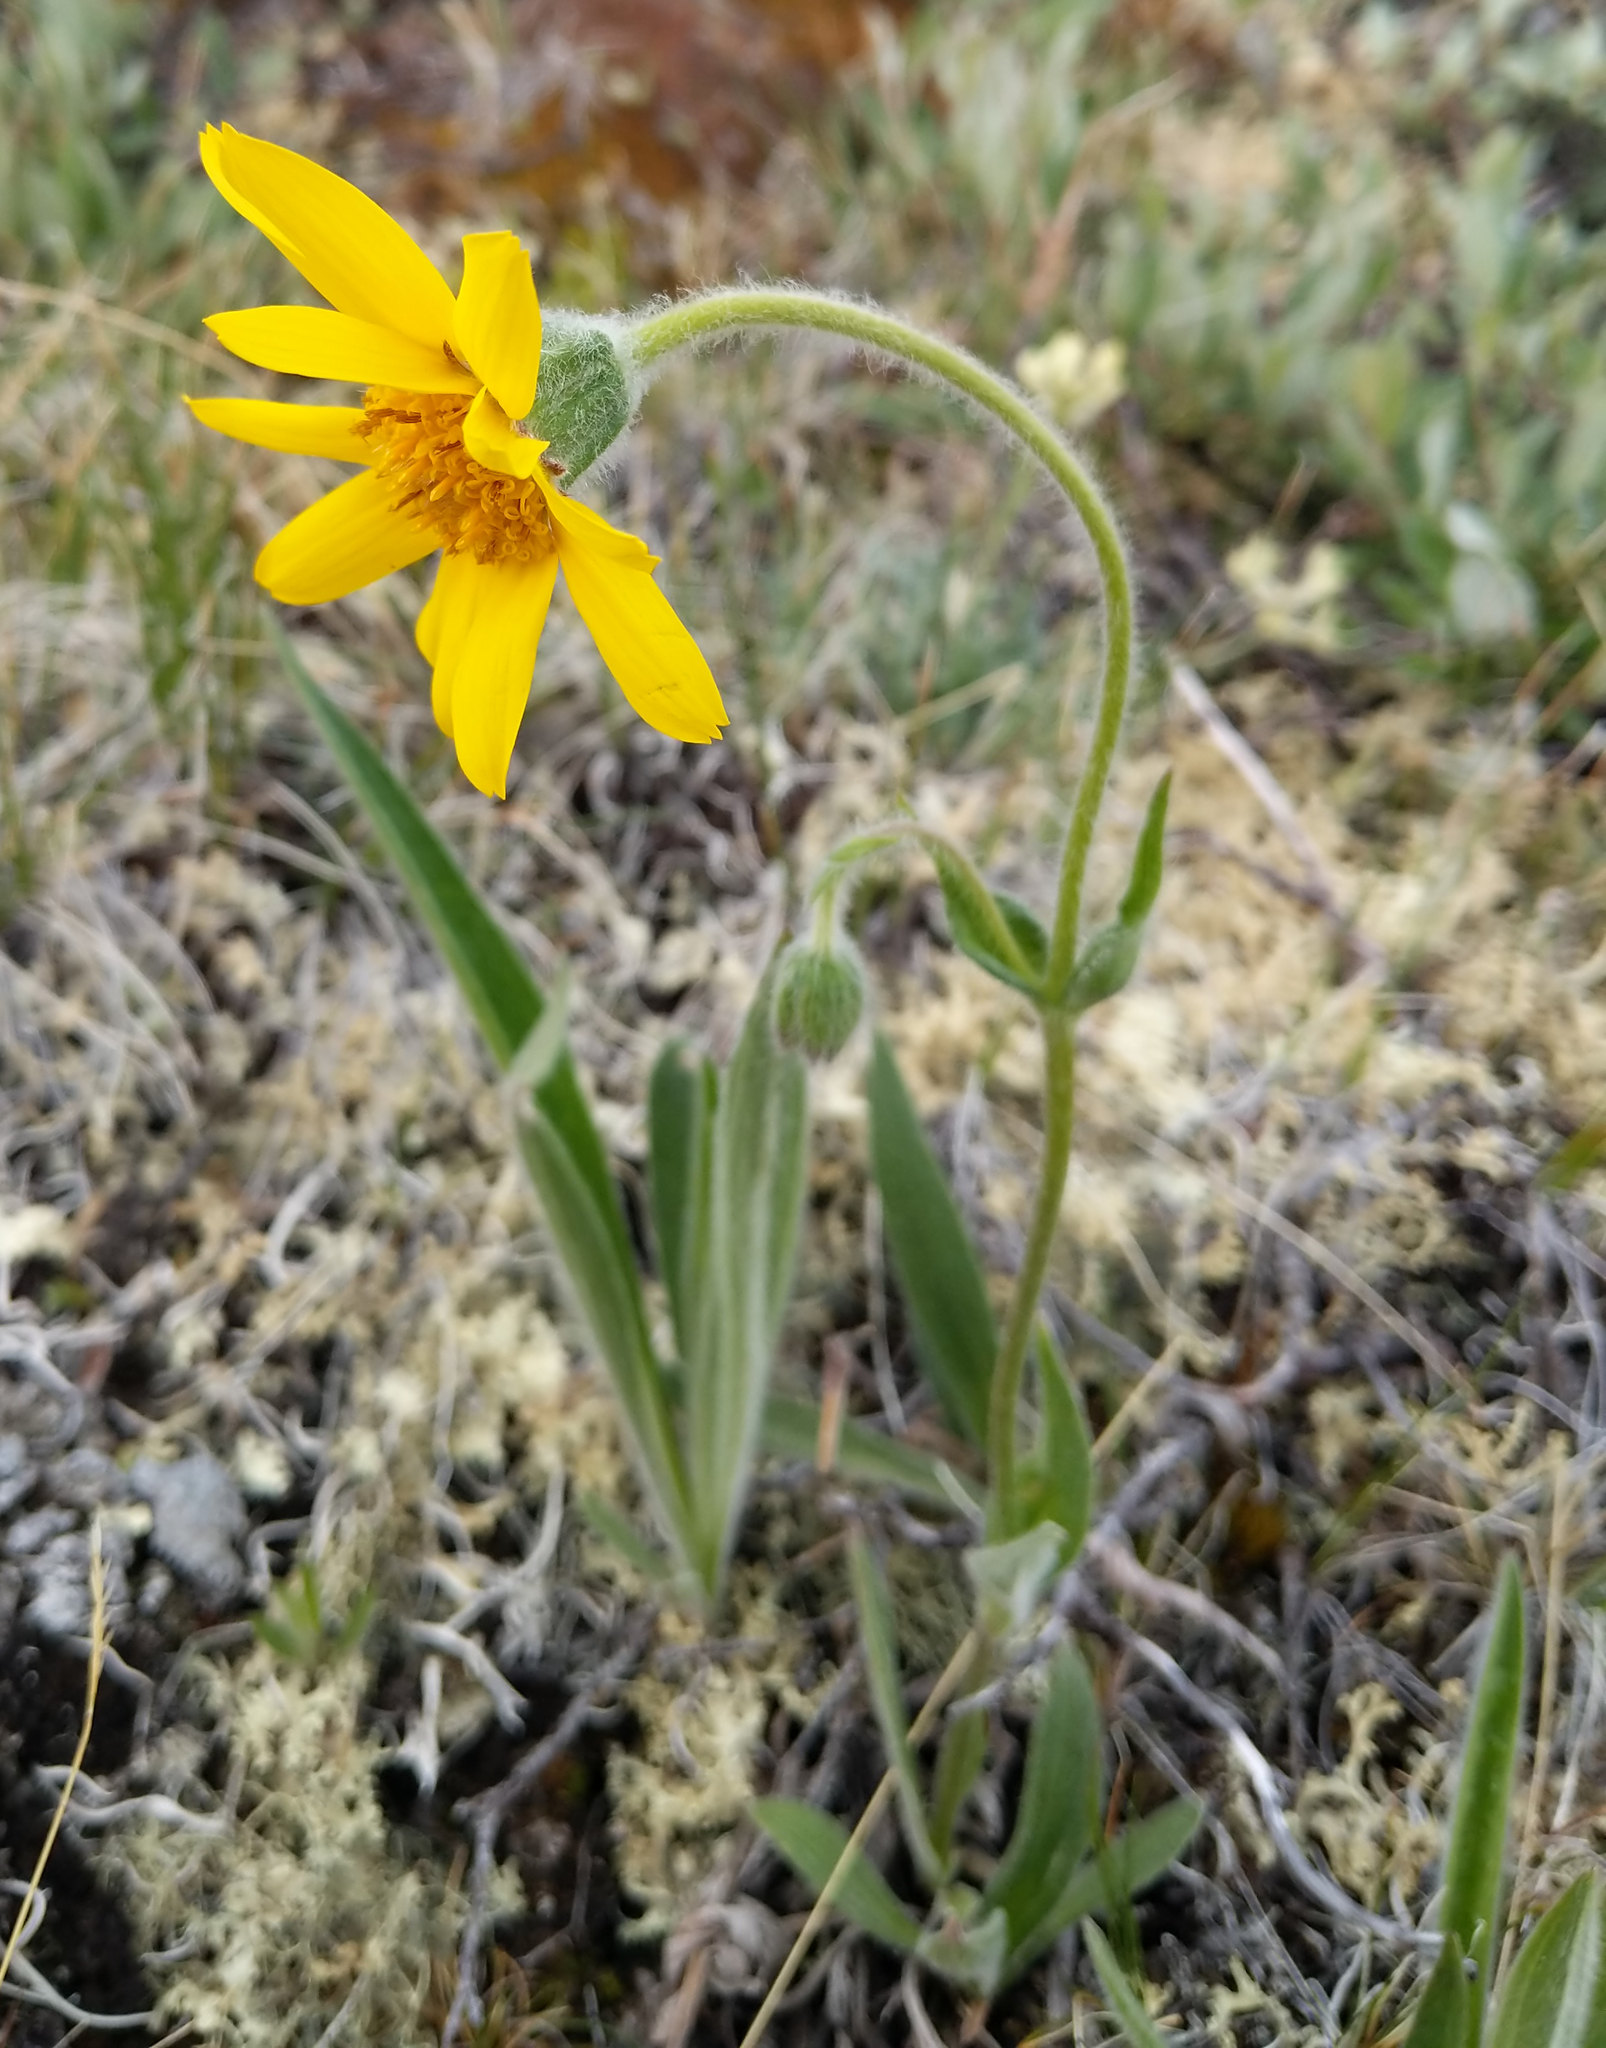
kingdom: Plantae
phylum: Tracheophyta
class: Magnoliopsida
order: Asterales
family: Asteraceae
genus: Arnica
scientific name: Arnica angustifolia
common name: Arctic arnica
